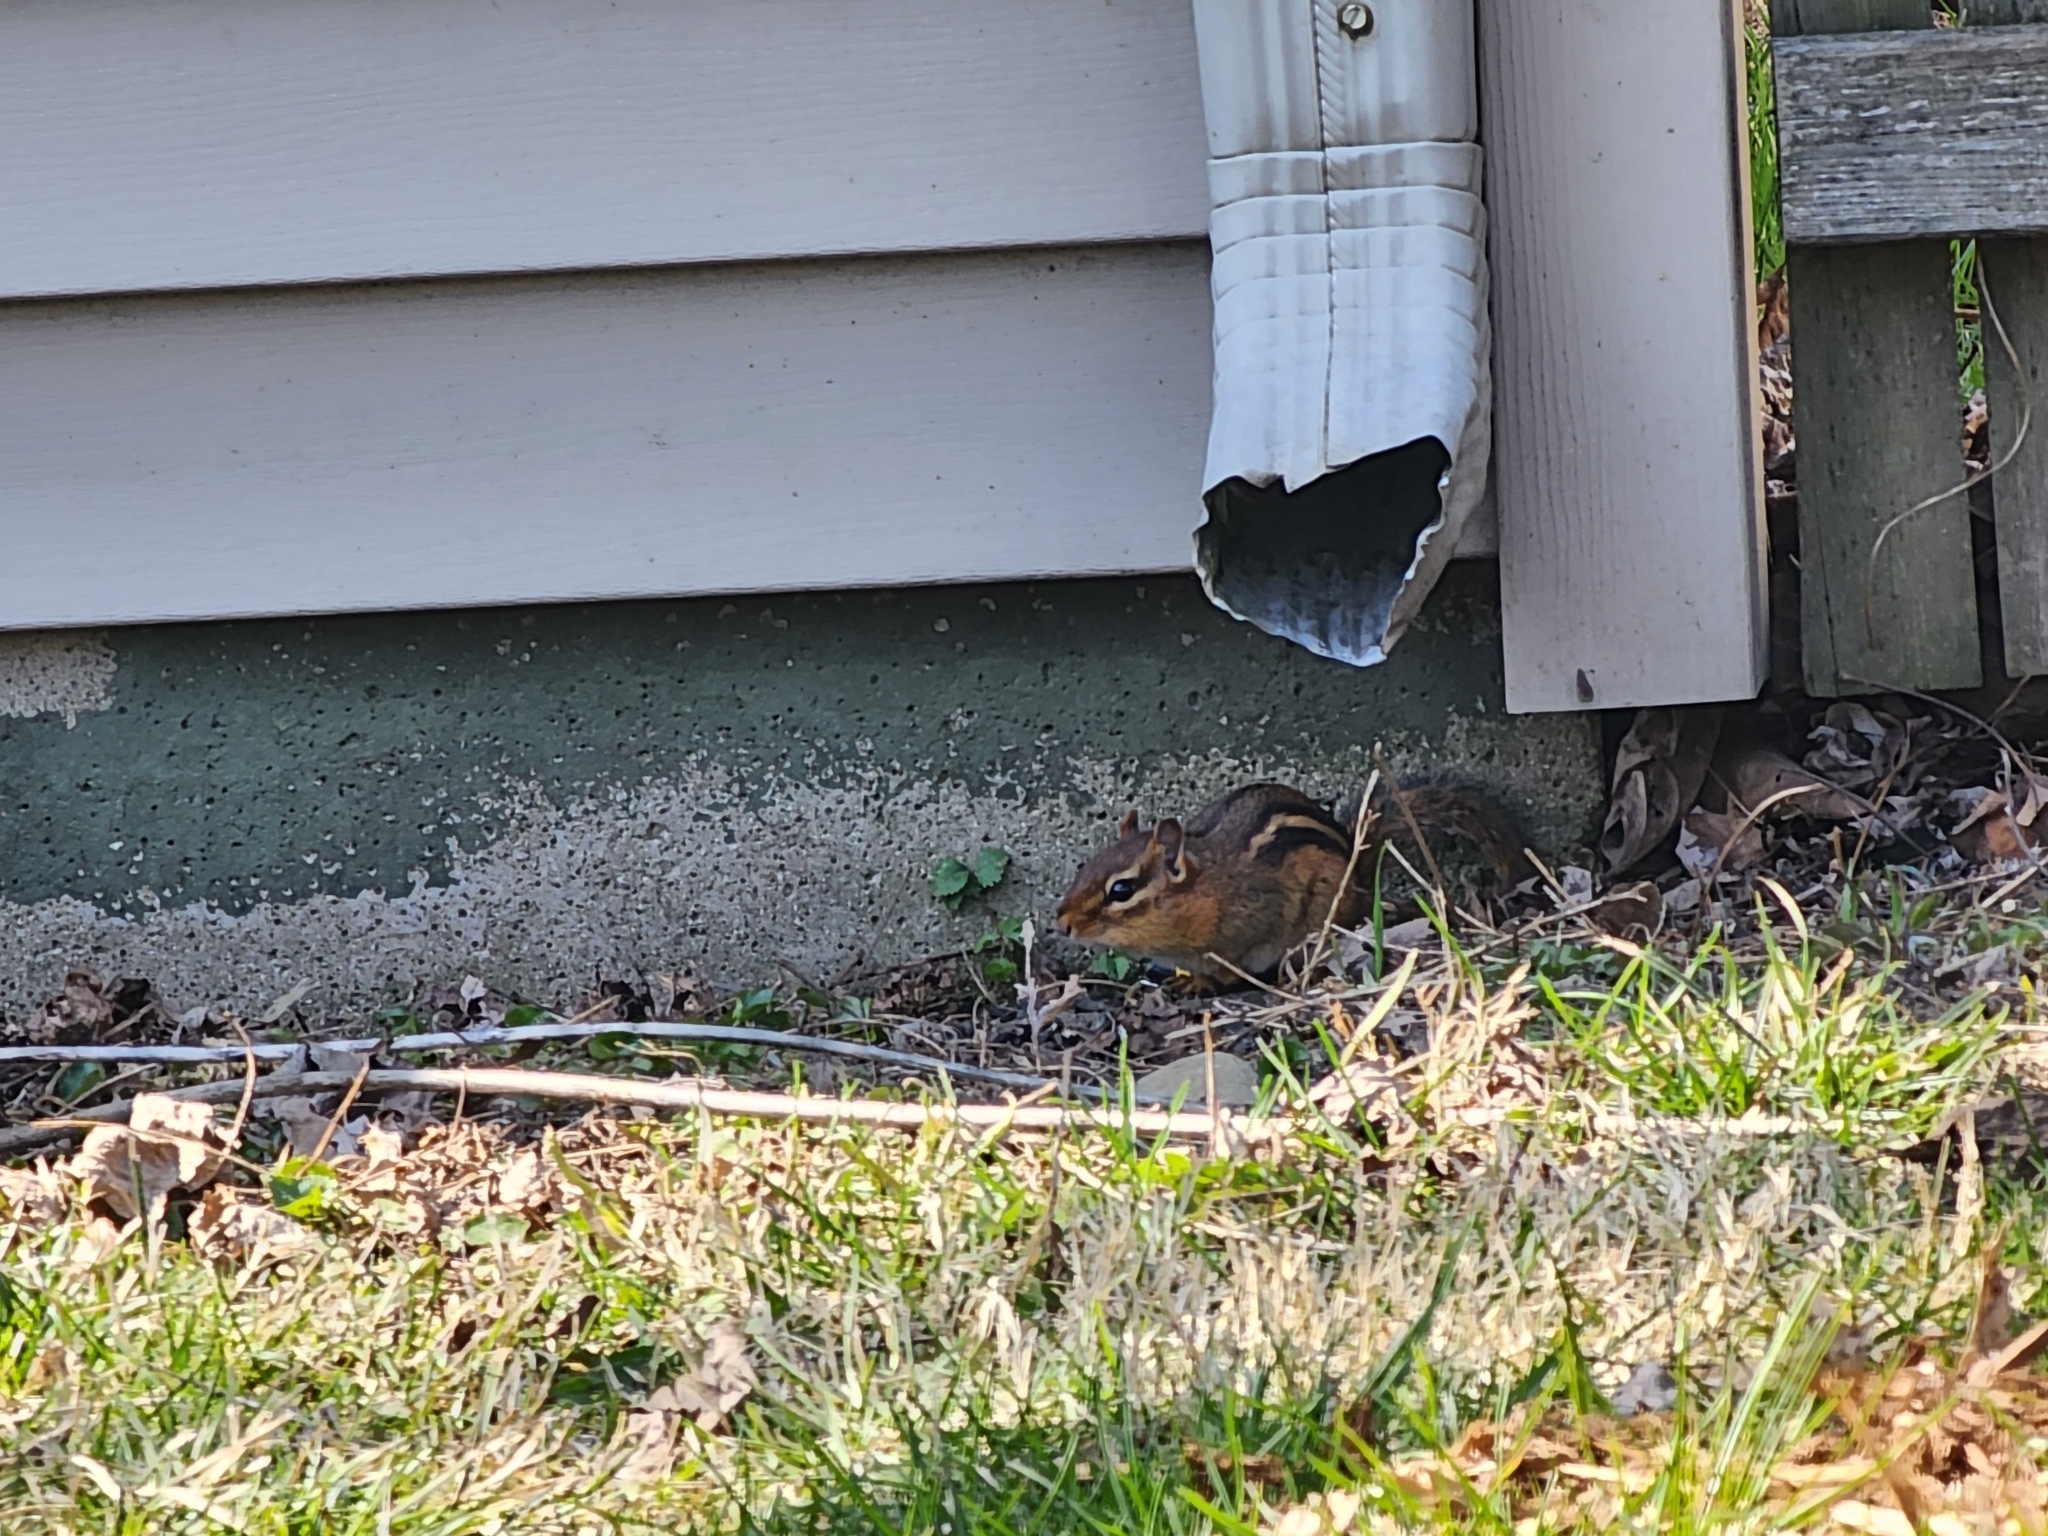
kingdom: Animalia
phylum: Chordata
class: Mammalia
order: Rodentia
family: Sciuridae
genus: Tamias
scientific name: Tamias striatus
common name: Eastern chipmunk
